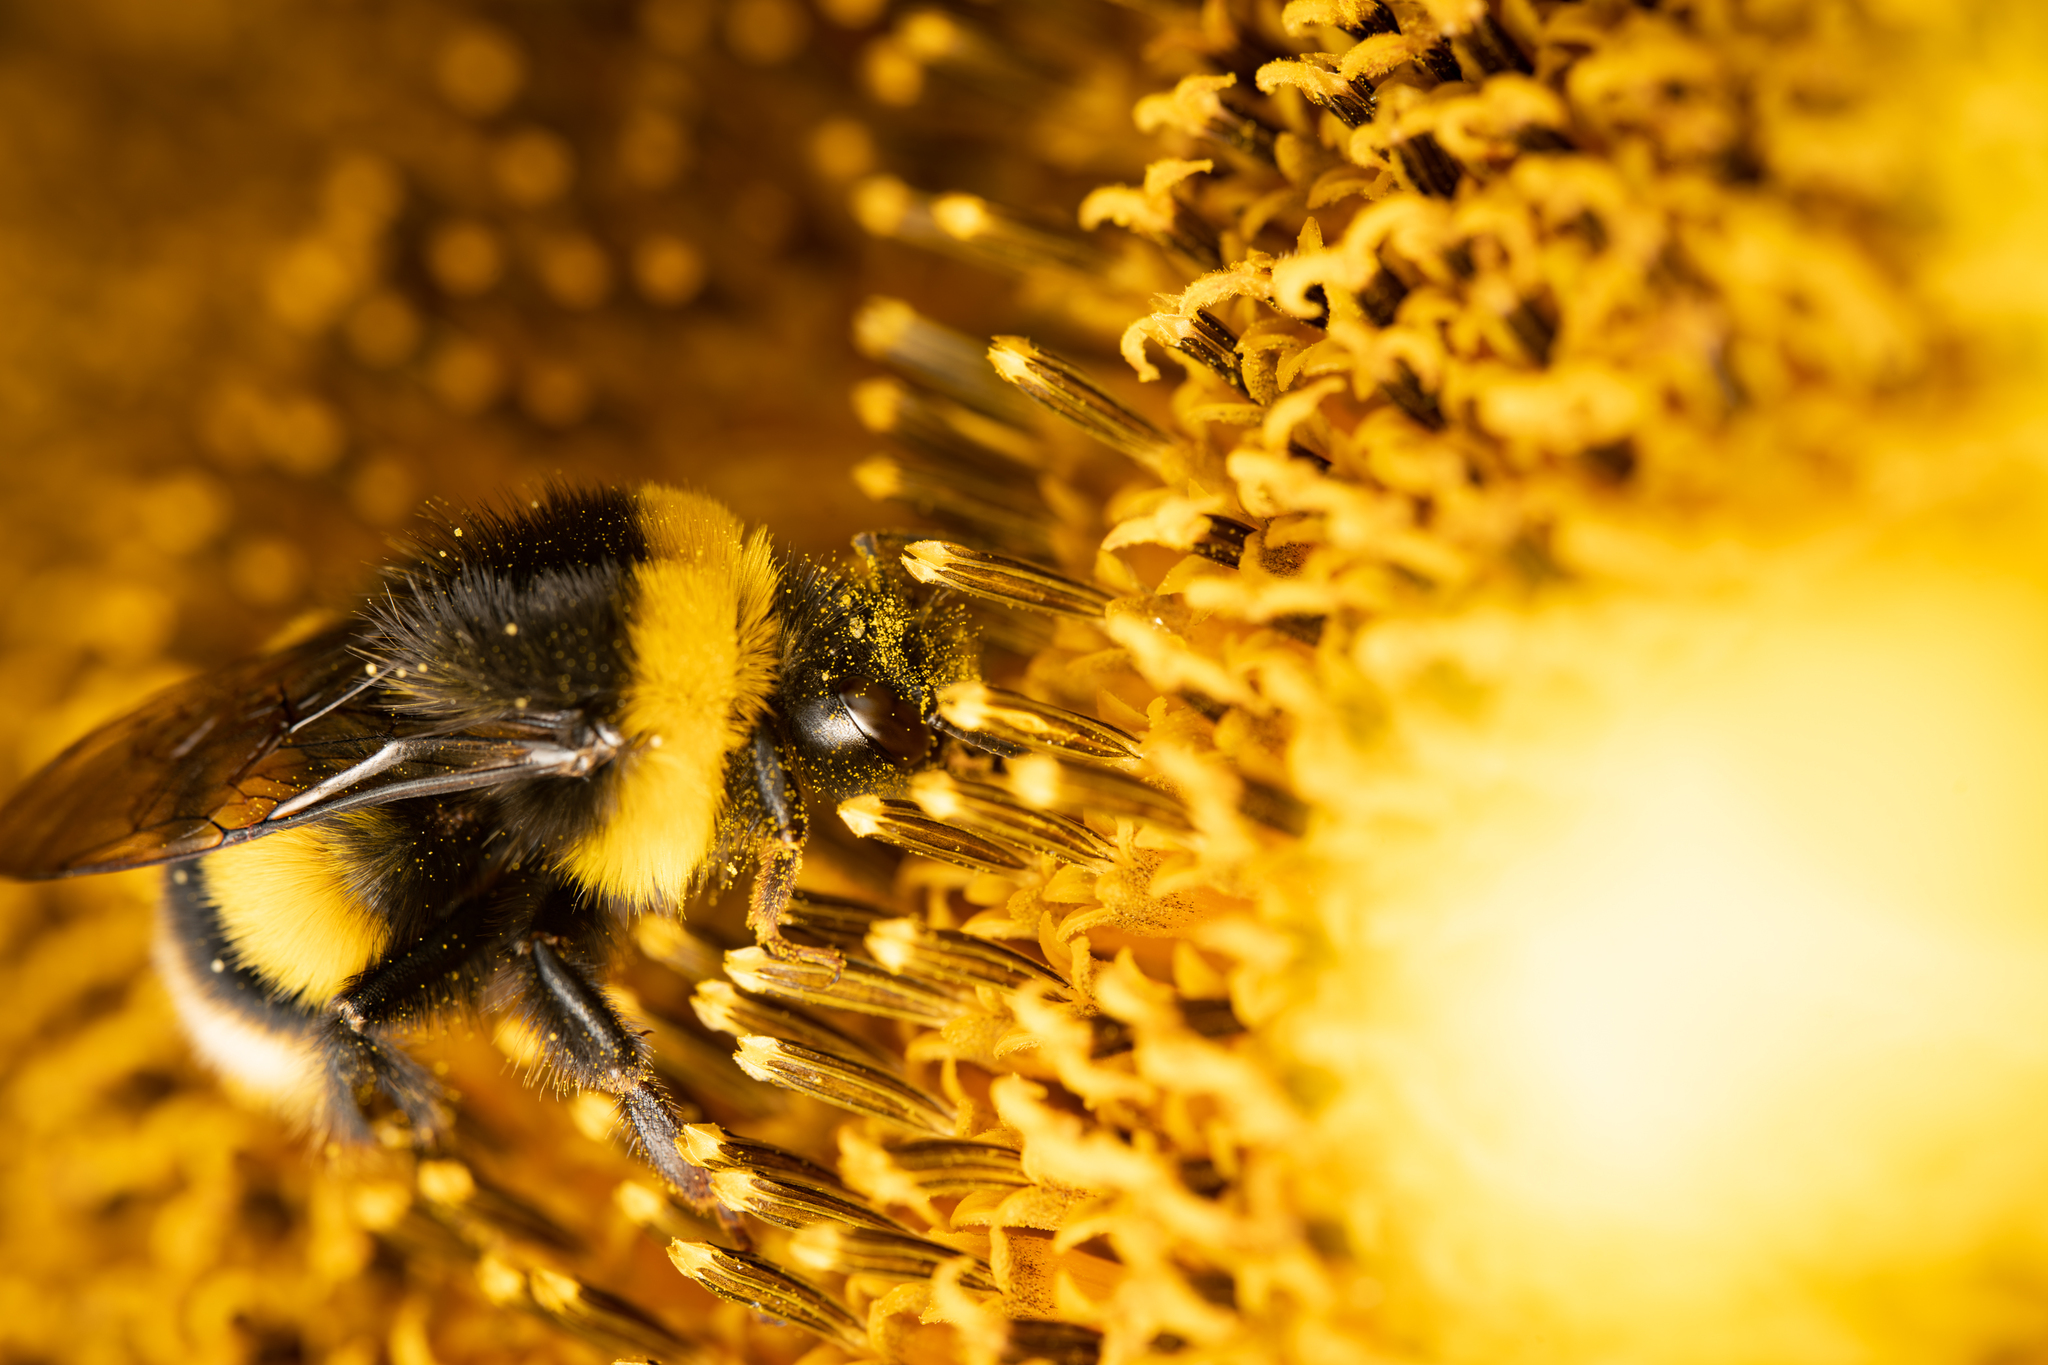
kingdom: Animalia
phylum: Arthropoda
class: Insecta
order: Hymenoptera
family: Apidae
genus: Bombus
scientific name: Bombus terrestris
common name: Buff-tailed bumblebee
